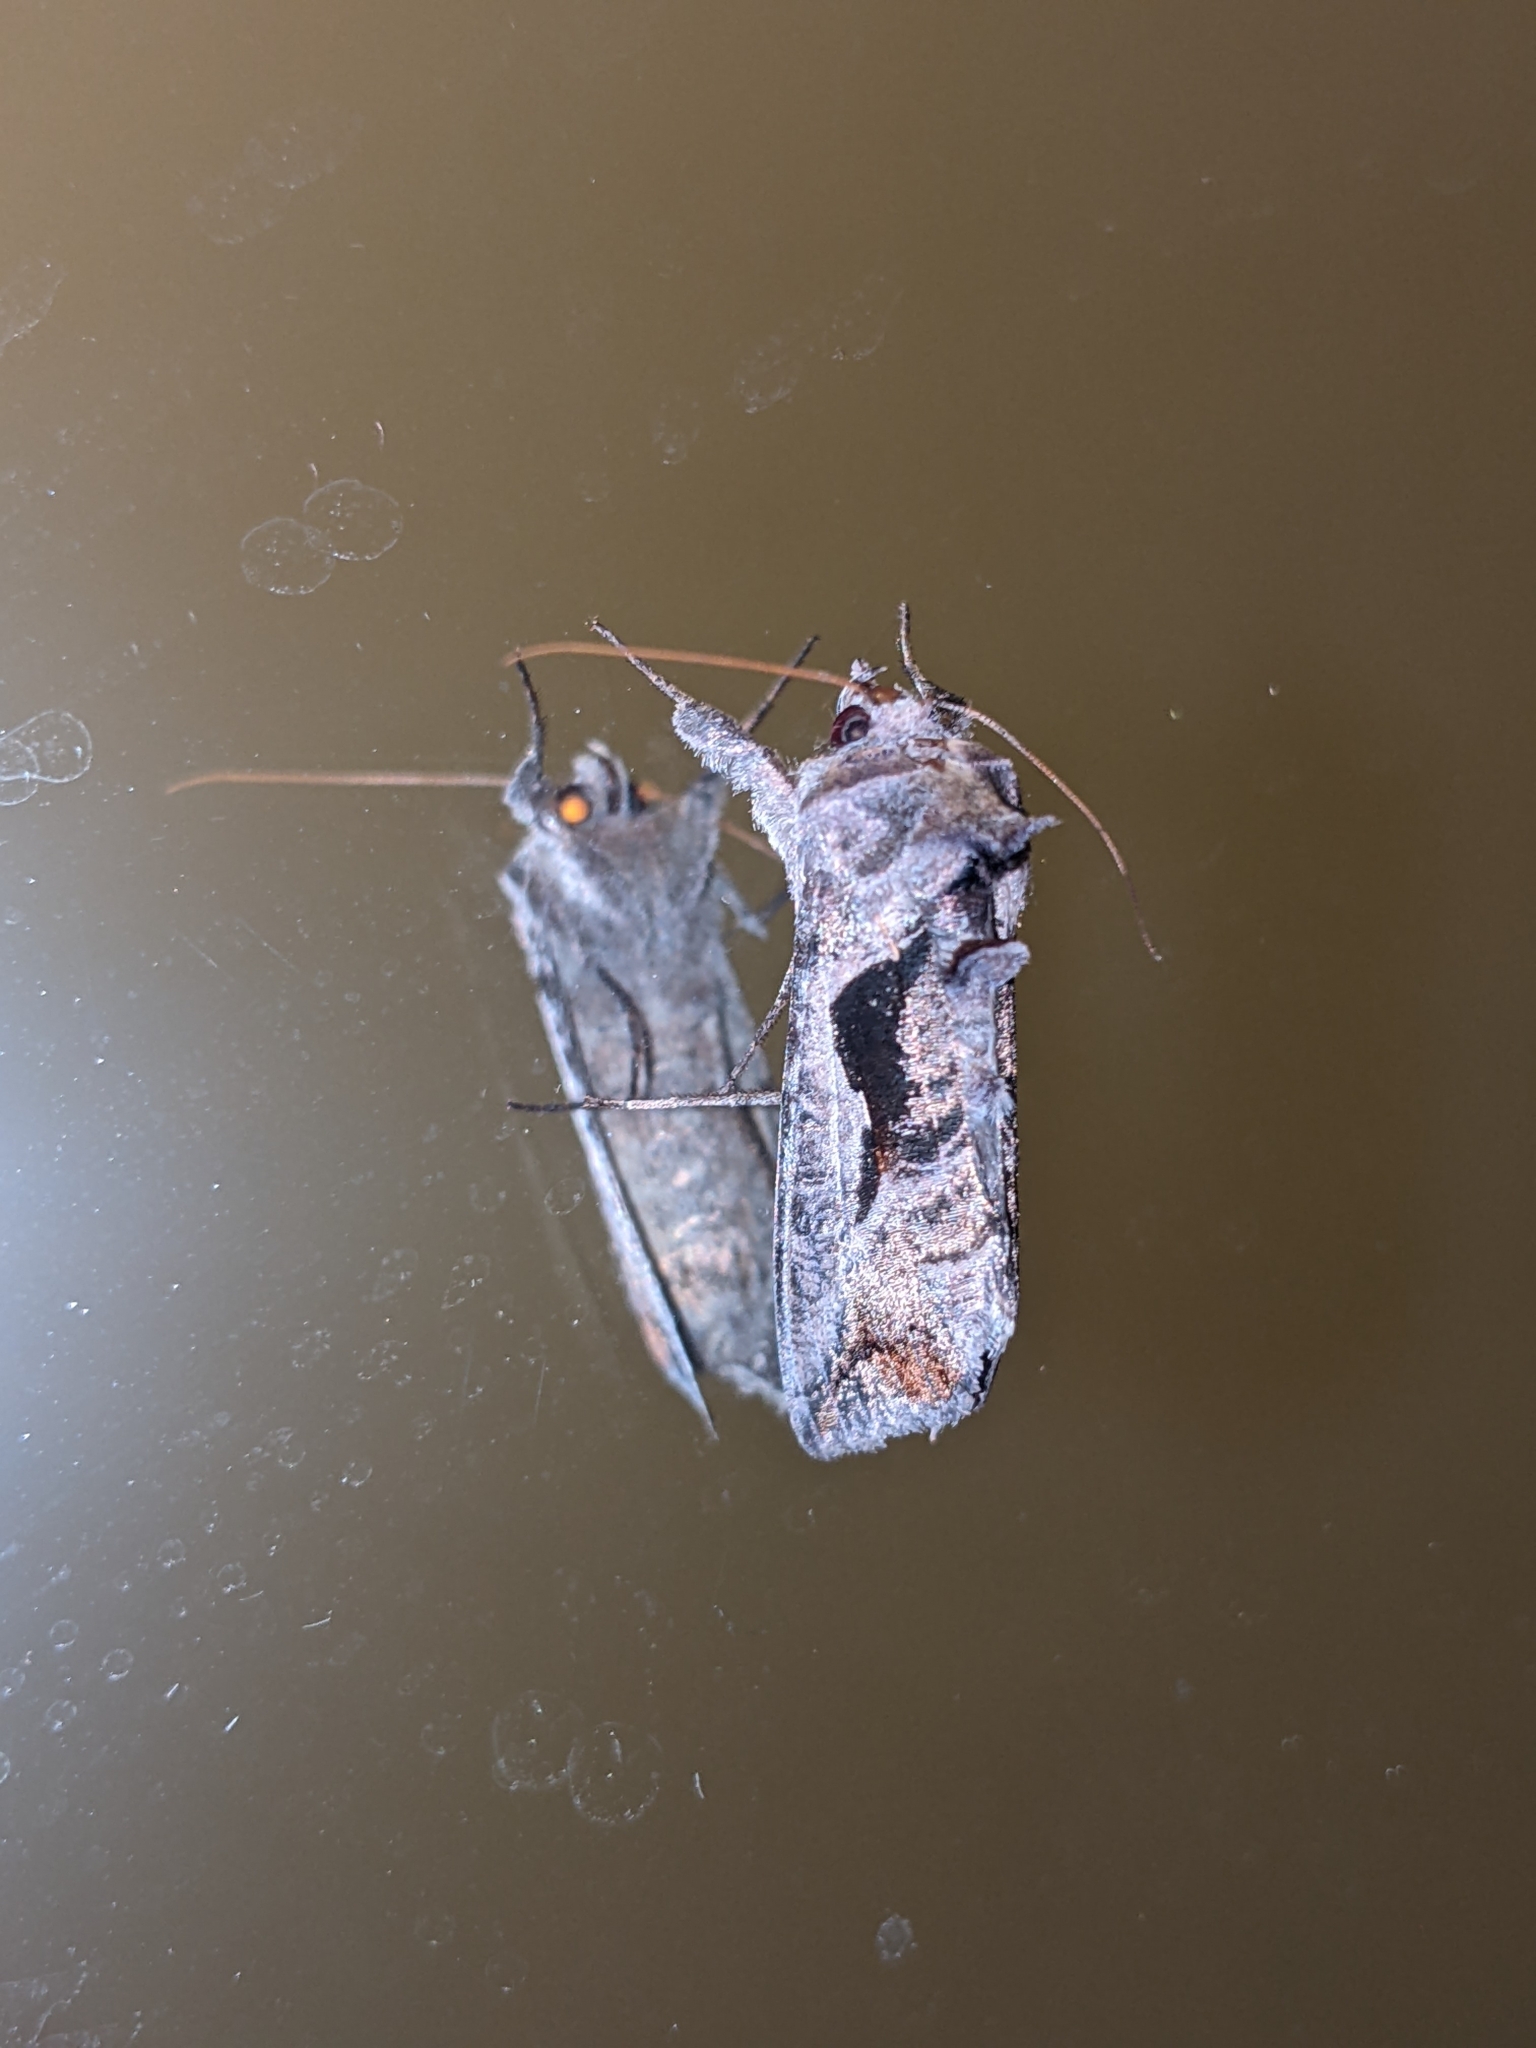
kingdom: Animalia
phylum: Arthropoda
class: Insecta
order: Lepidoptera
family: Noctuidae
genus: Autoplusia
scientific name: Autoplusia egenoides
